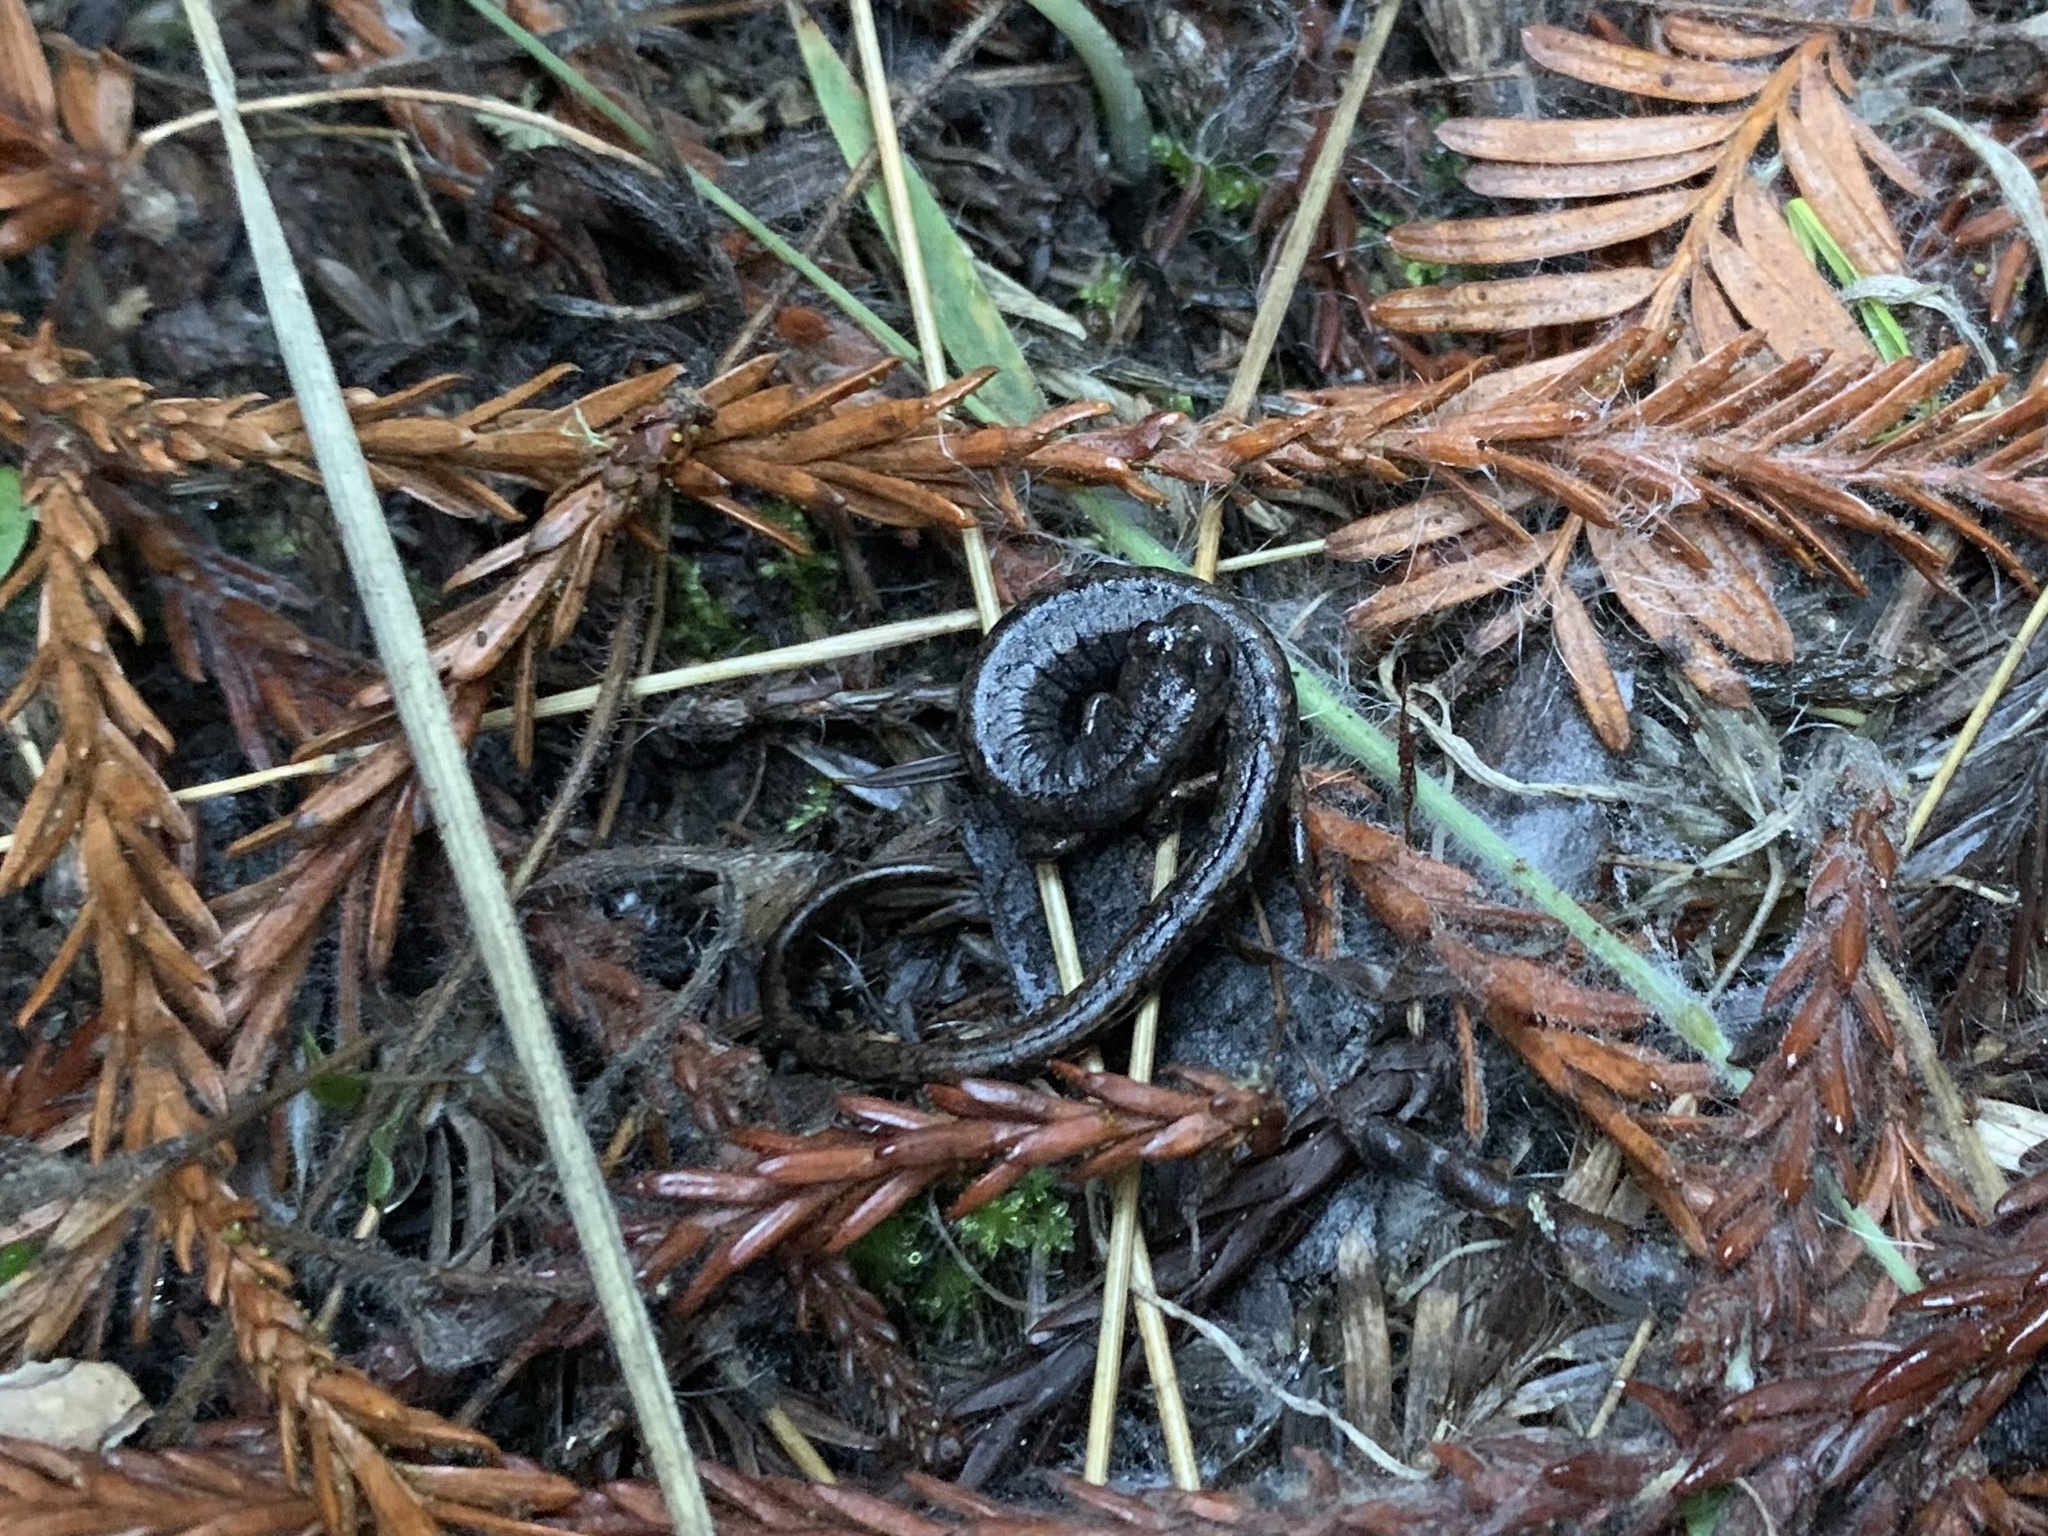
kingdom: Animalia
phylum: Chordata
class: Amphibia
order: Caudata
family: Plethodontidae
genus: Batrachoseps
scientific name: Batrachoseps attenuatus
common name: California slender salamander
